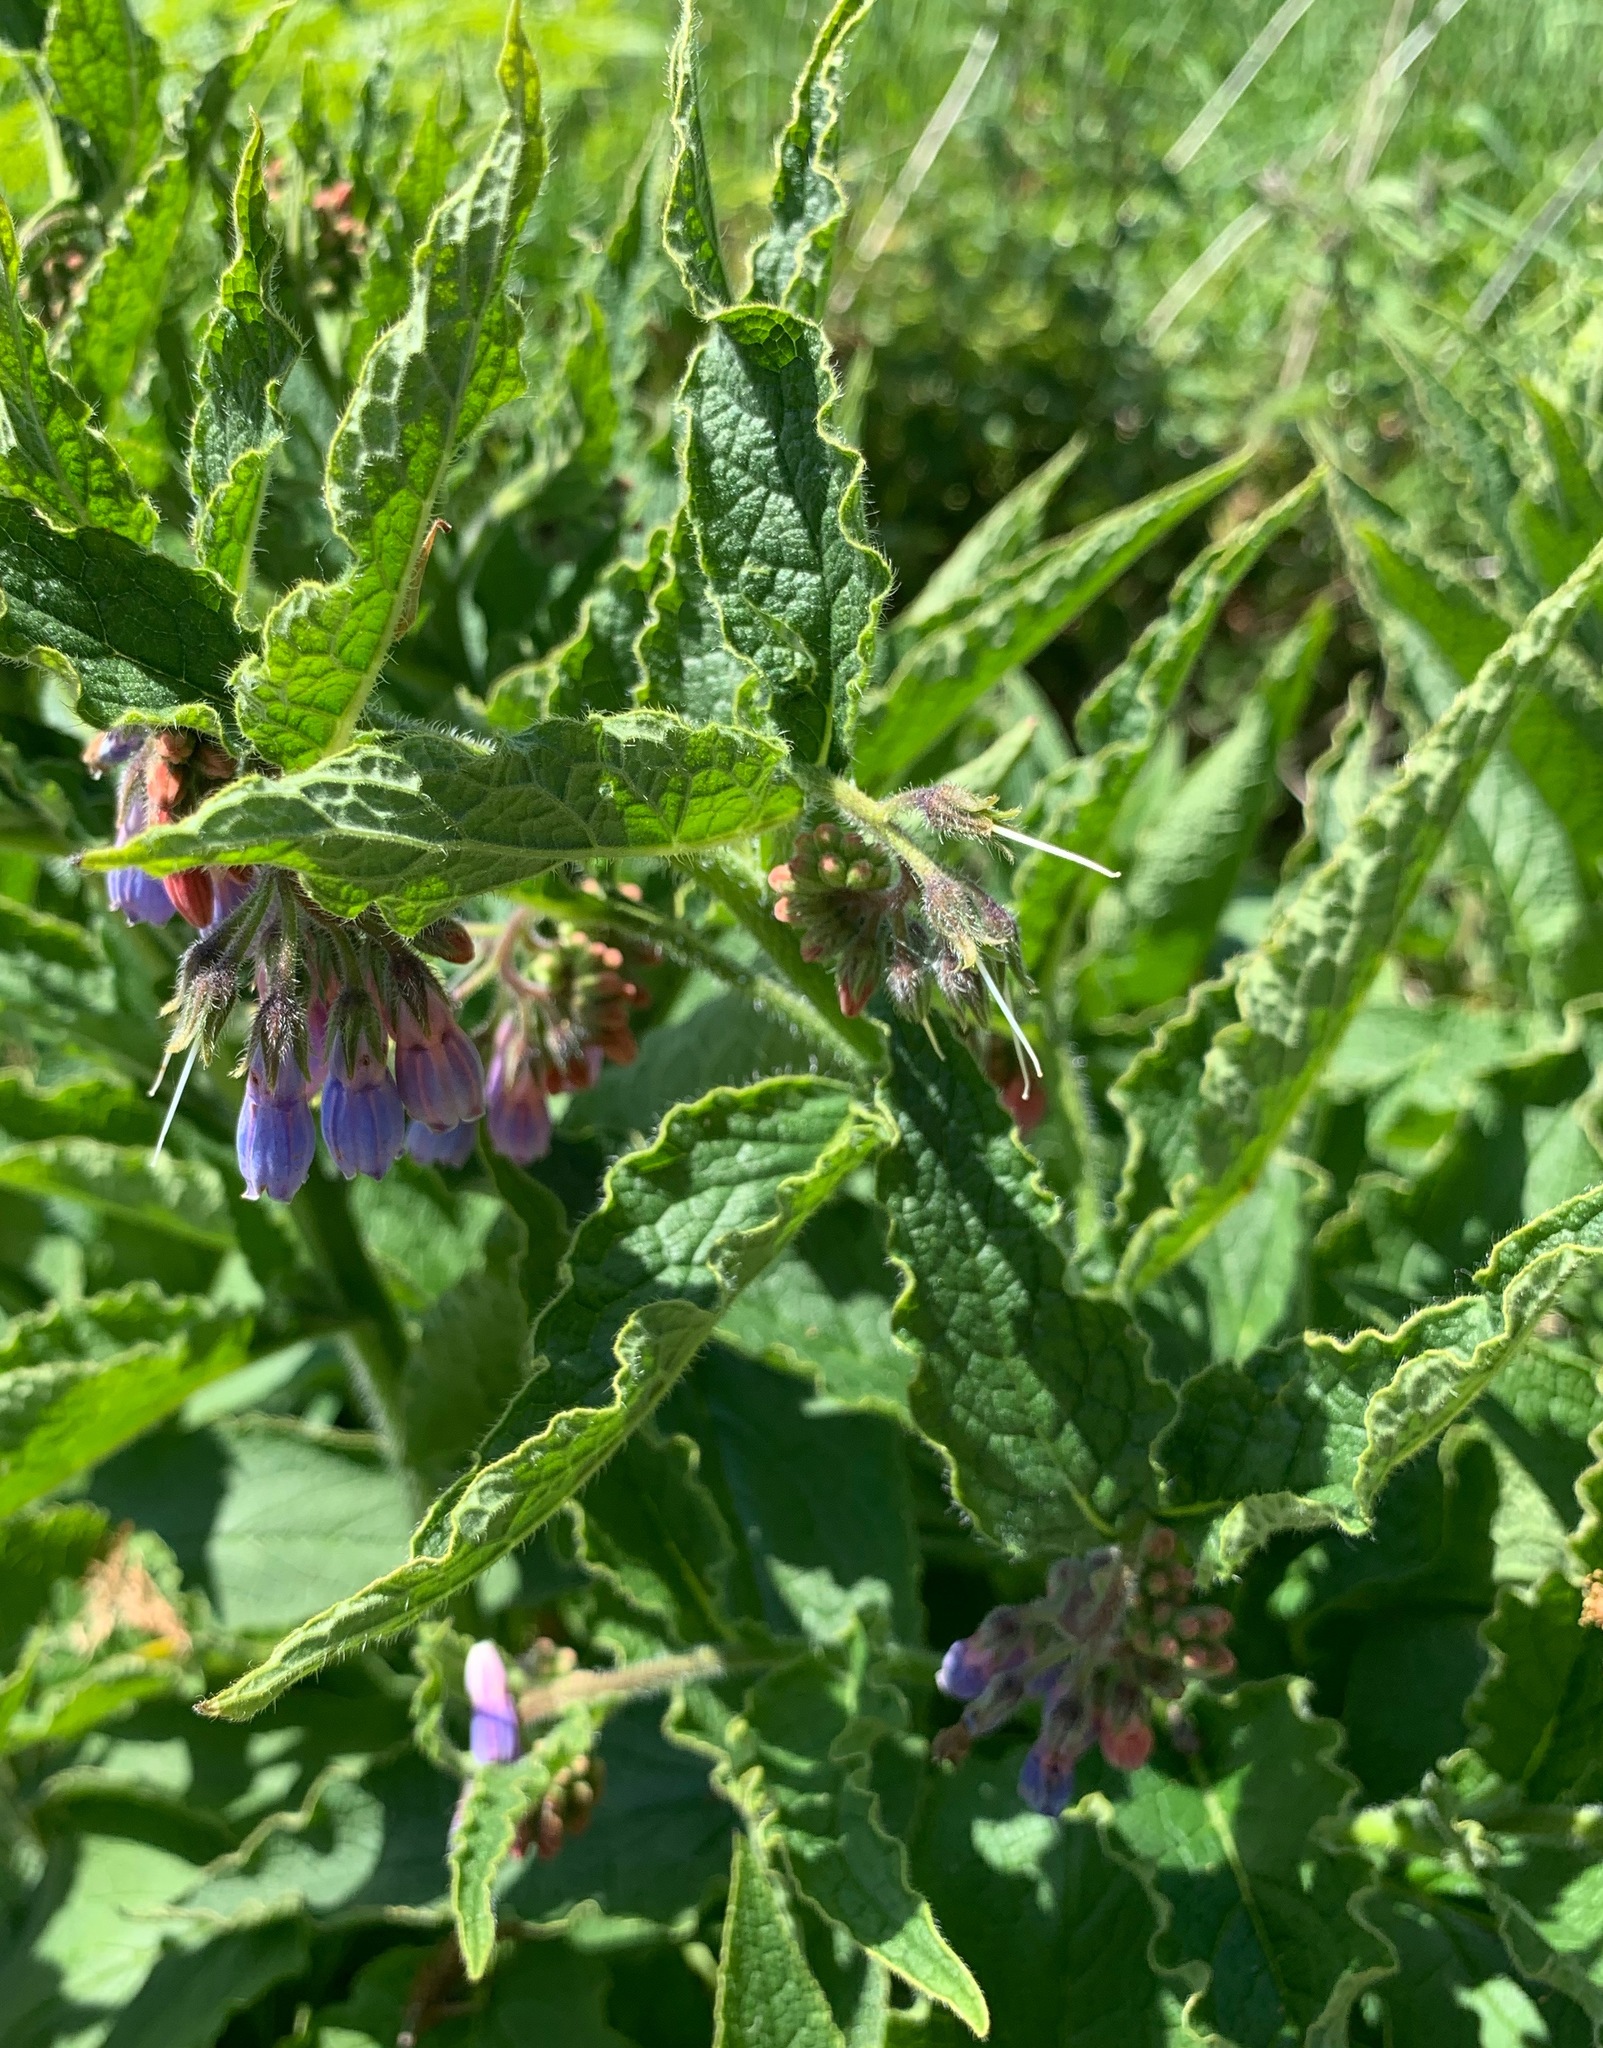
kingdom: Plantae
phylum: Tracheophyta
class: Magnoliopsida
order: Boraginales
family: Boraginaceae
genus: Symphytum
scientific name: Symphytum officinale
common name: Common comfrey
